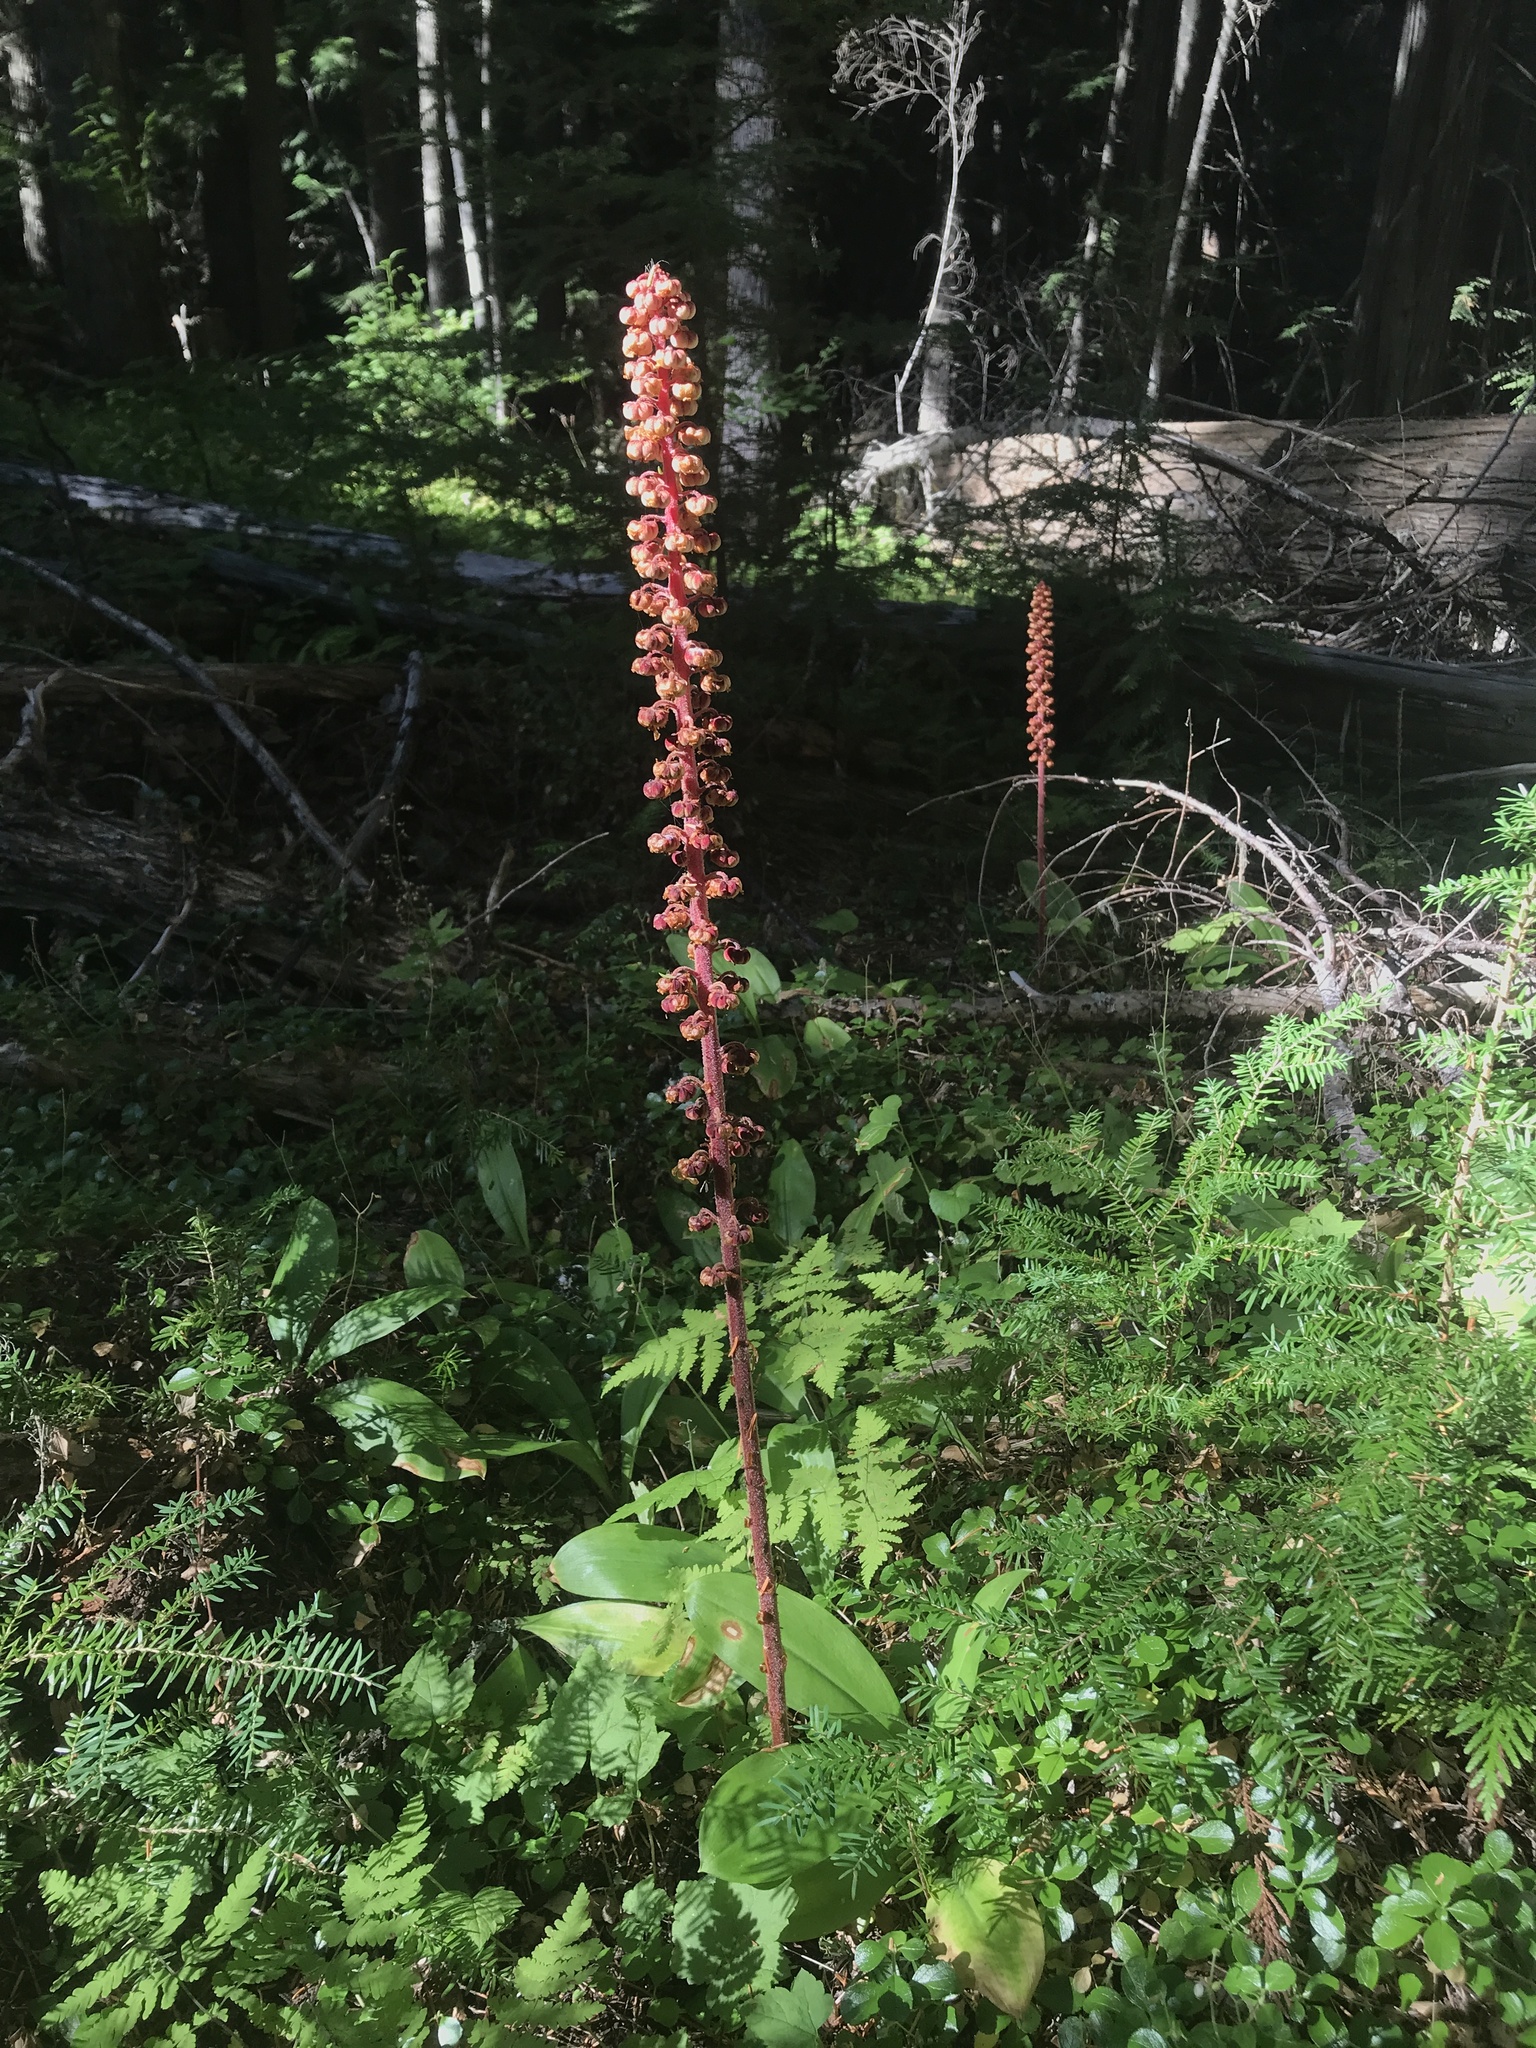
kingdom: Plantae
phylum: Tracheophyta
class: Magnoliopsida
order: Ericales
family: Ericaceae
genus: Pterospora
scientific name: Pterospora andromedea
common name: Giant bird's-nest
